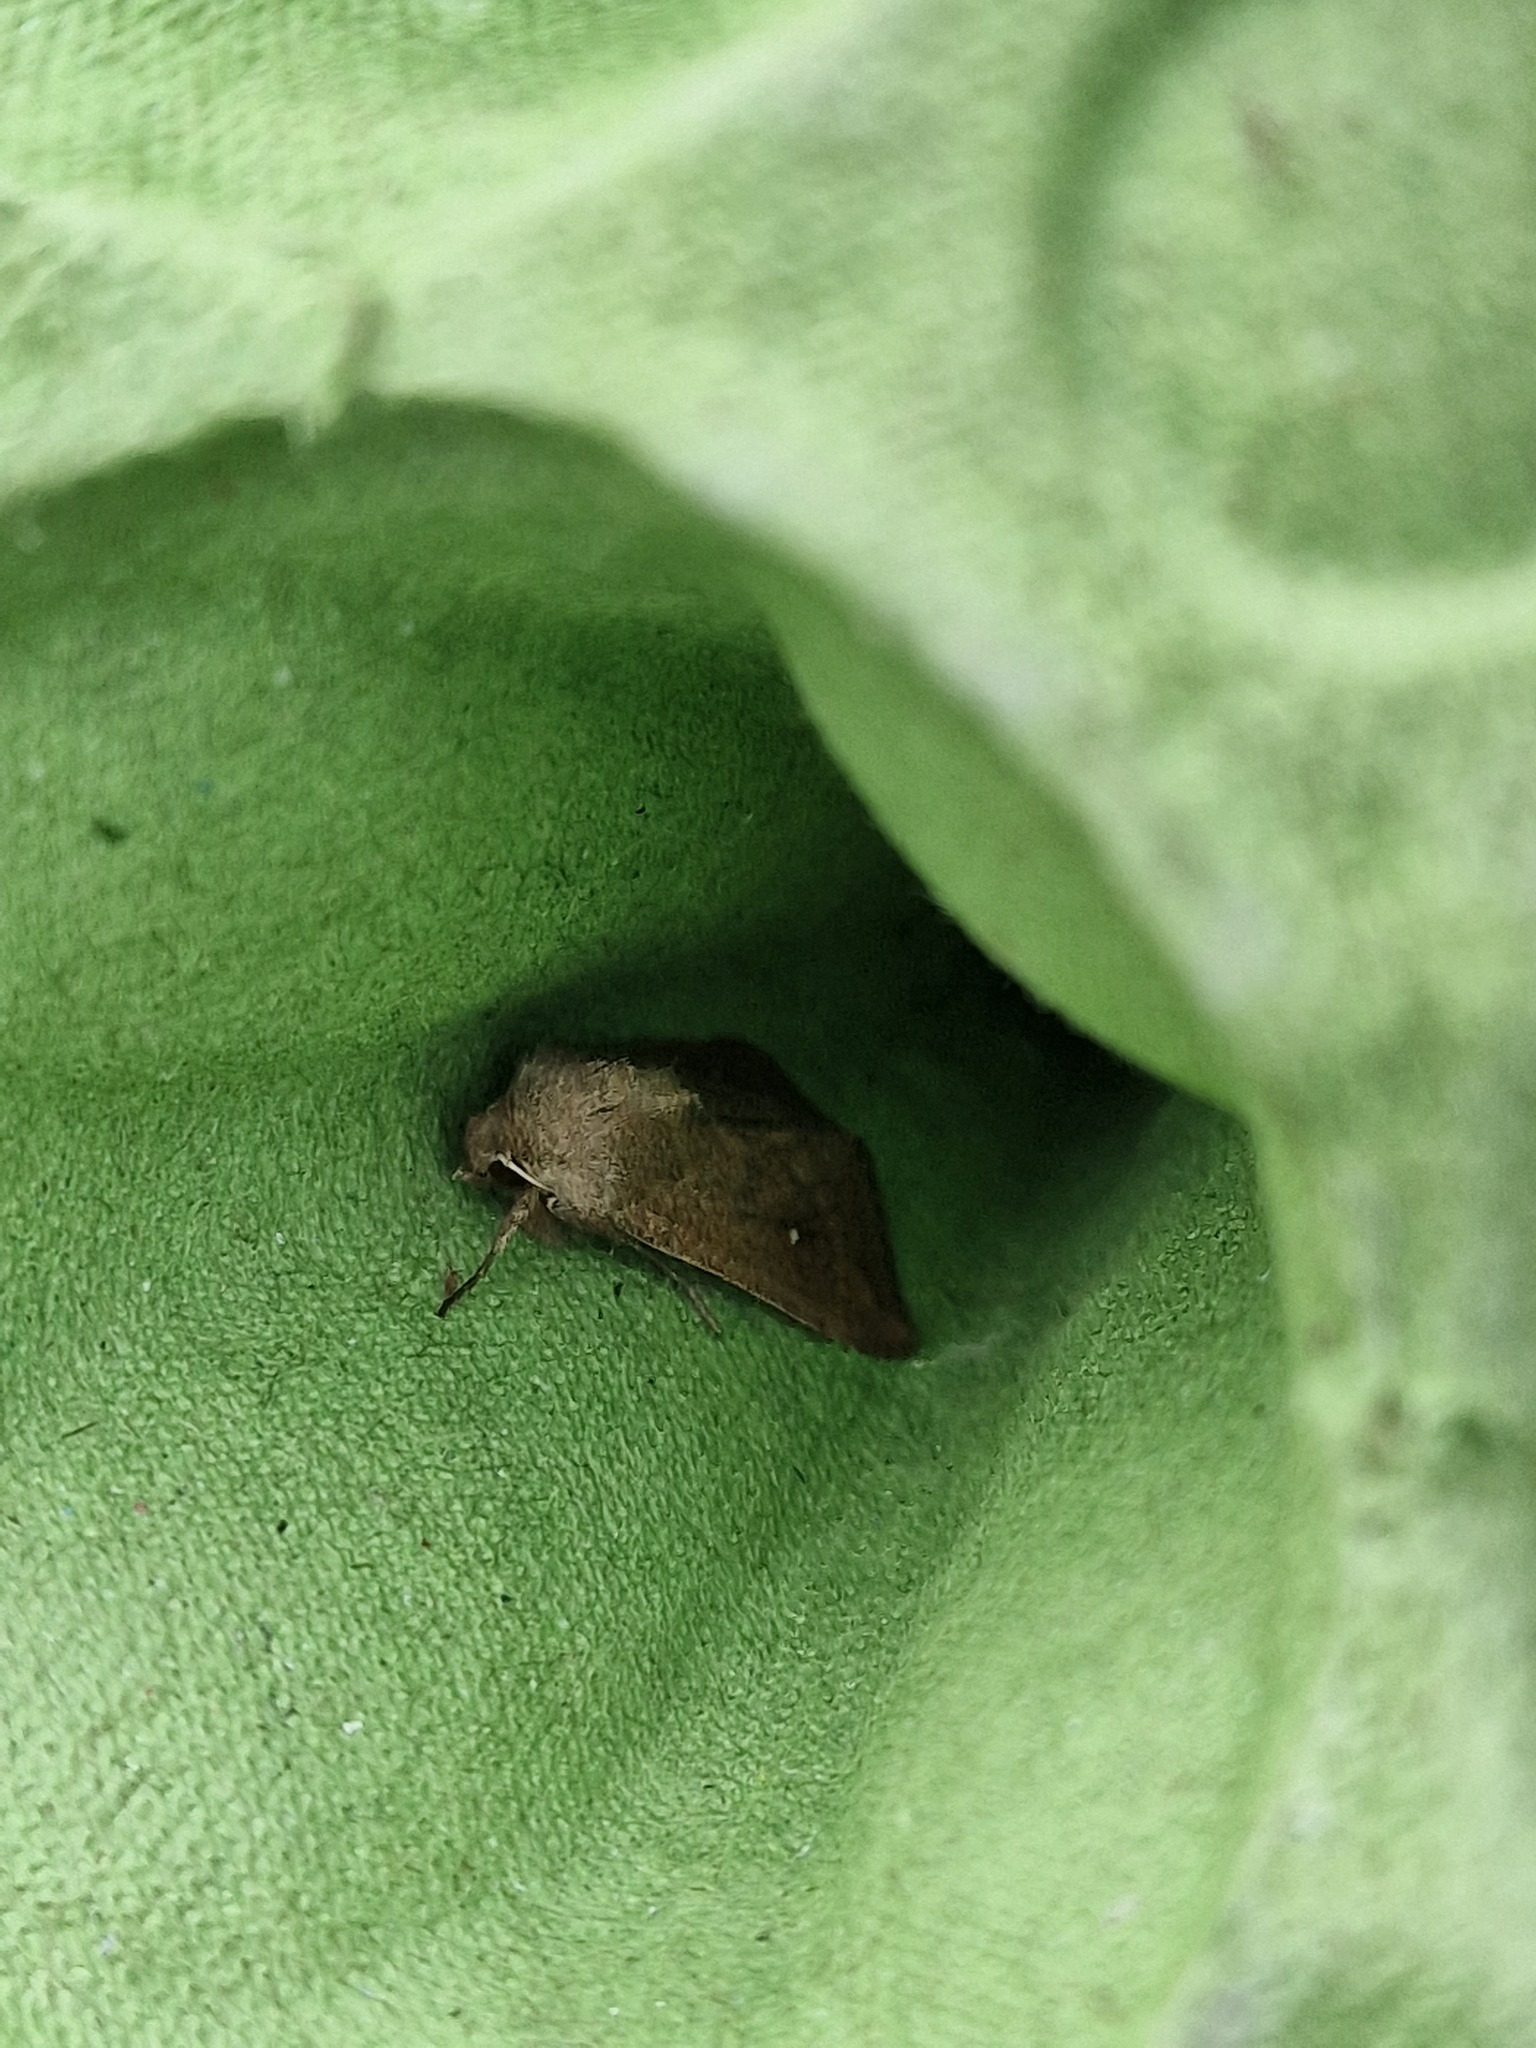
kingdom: Animalia
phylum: Arthropoda
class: Insecta
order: Lepidoptera
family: Noctuidae
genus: Mythimna
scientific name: Mythimna albipuncta
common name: White-point
